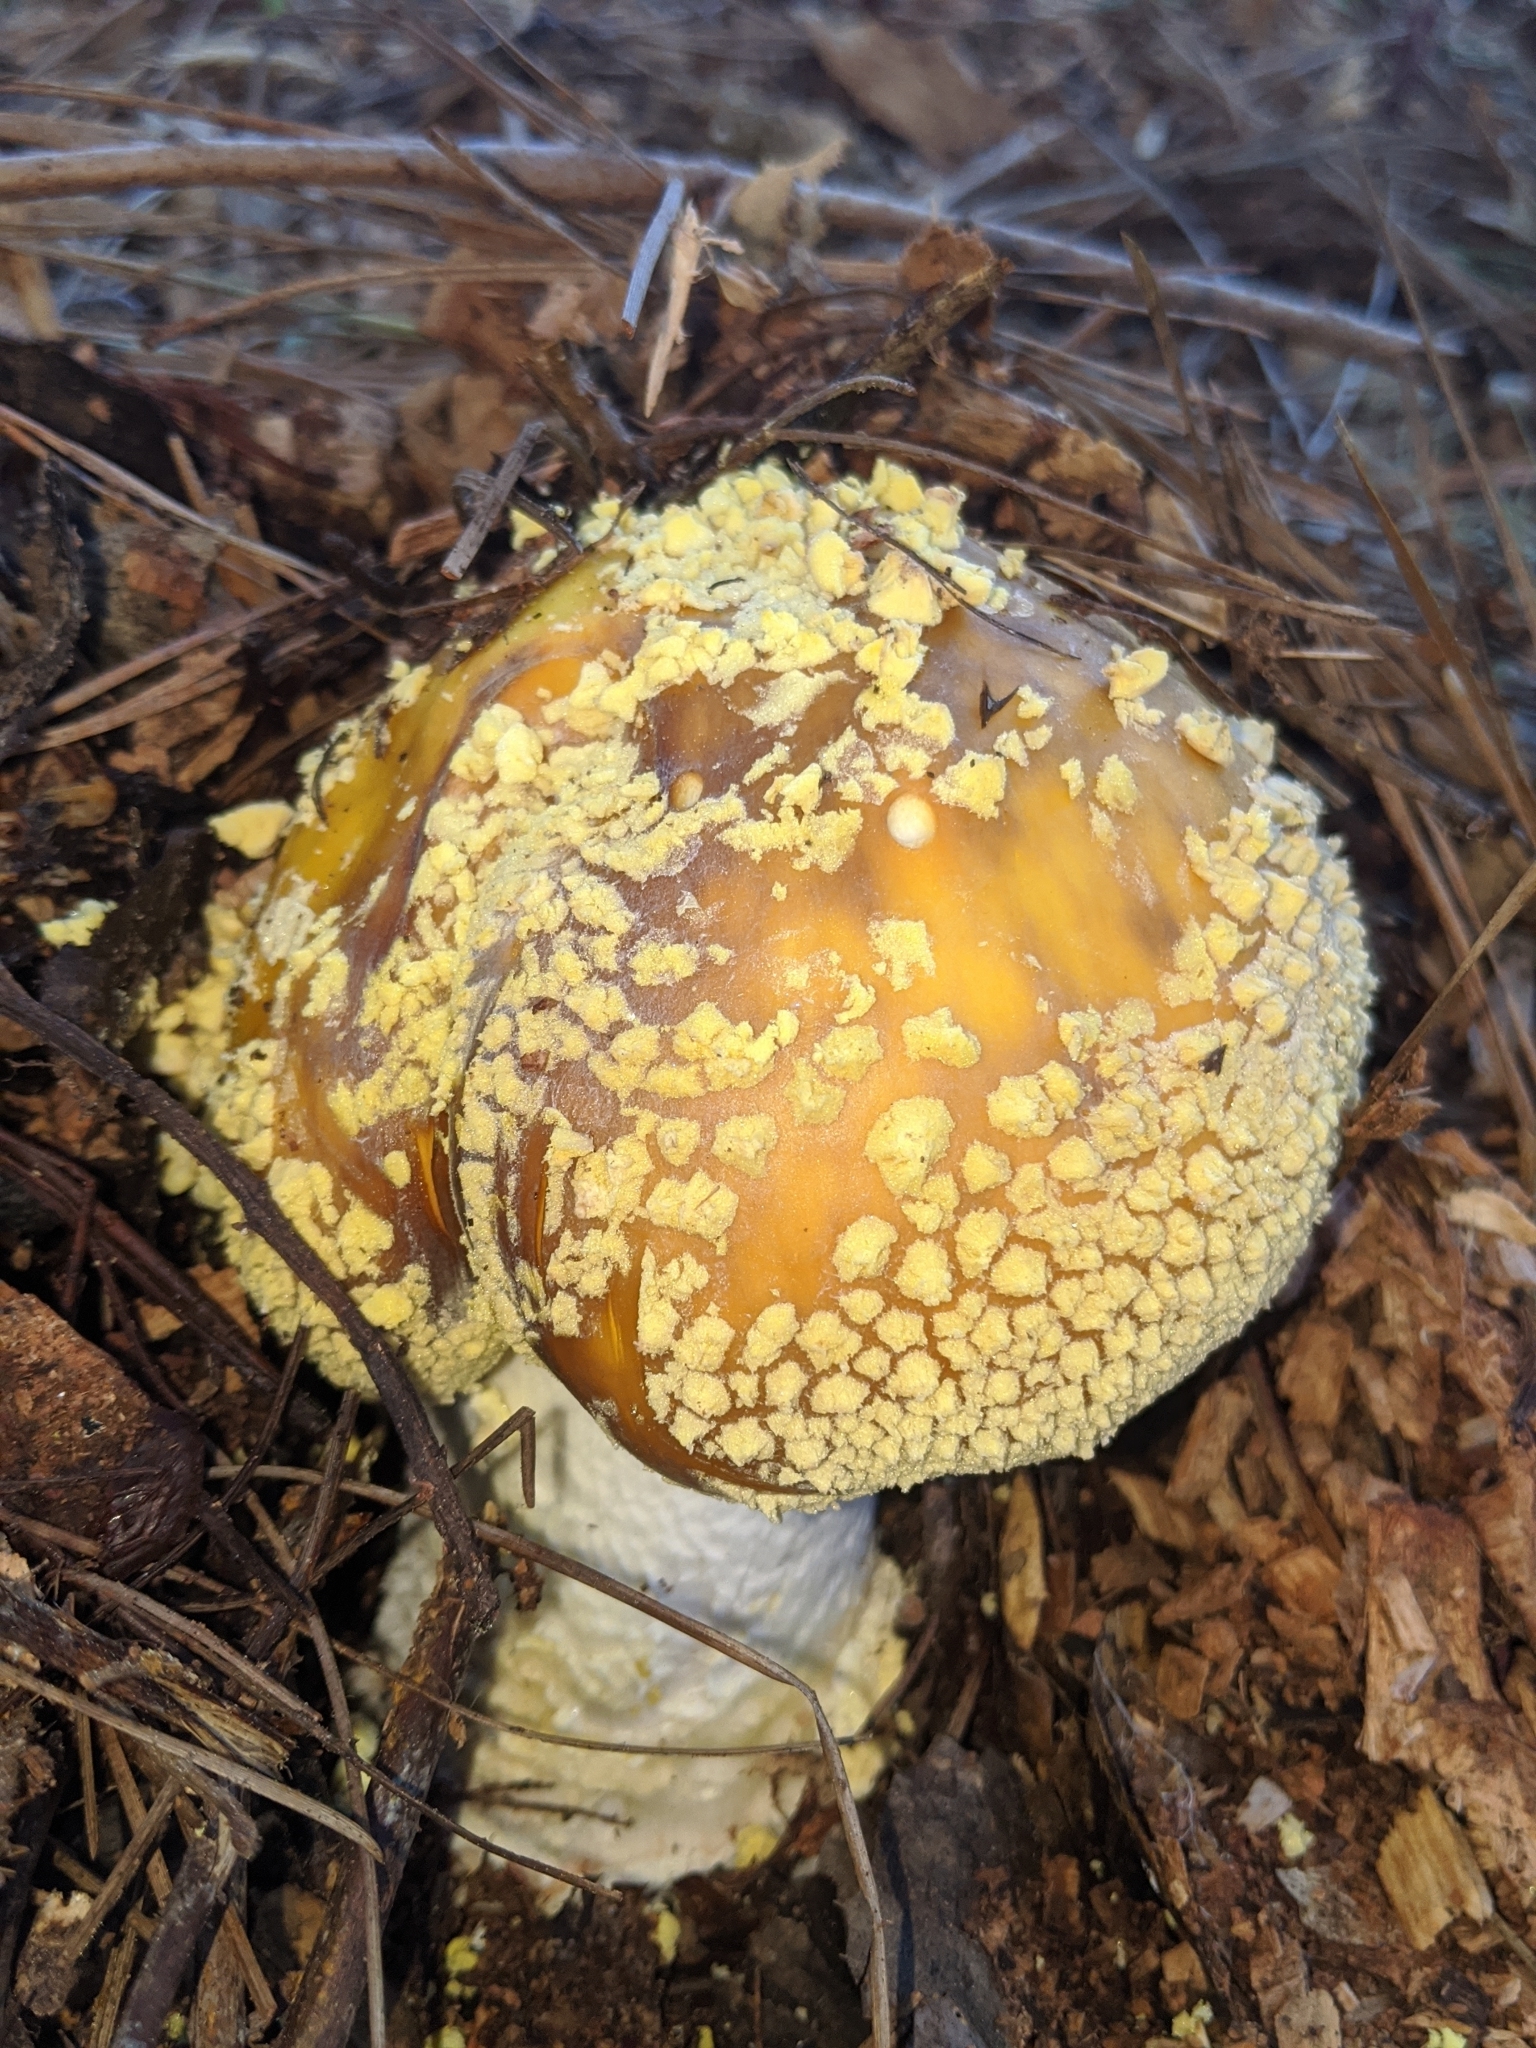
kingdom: Fungi
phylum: Basidiomycota
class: Agaricomycetes
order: Agaricales
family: Amanitaceae
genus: Amanita
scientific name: Amanita augusta
